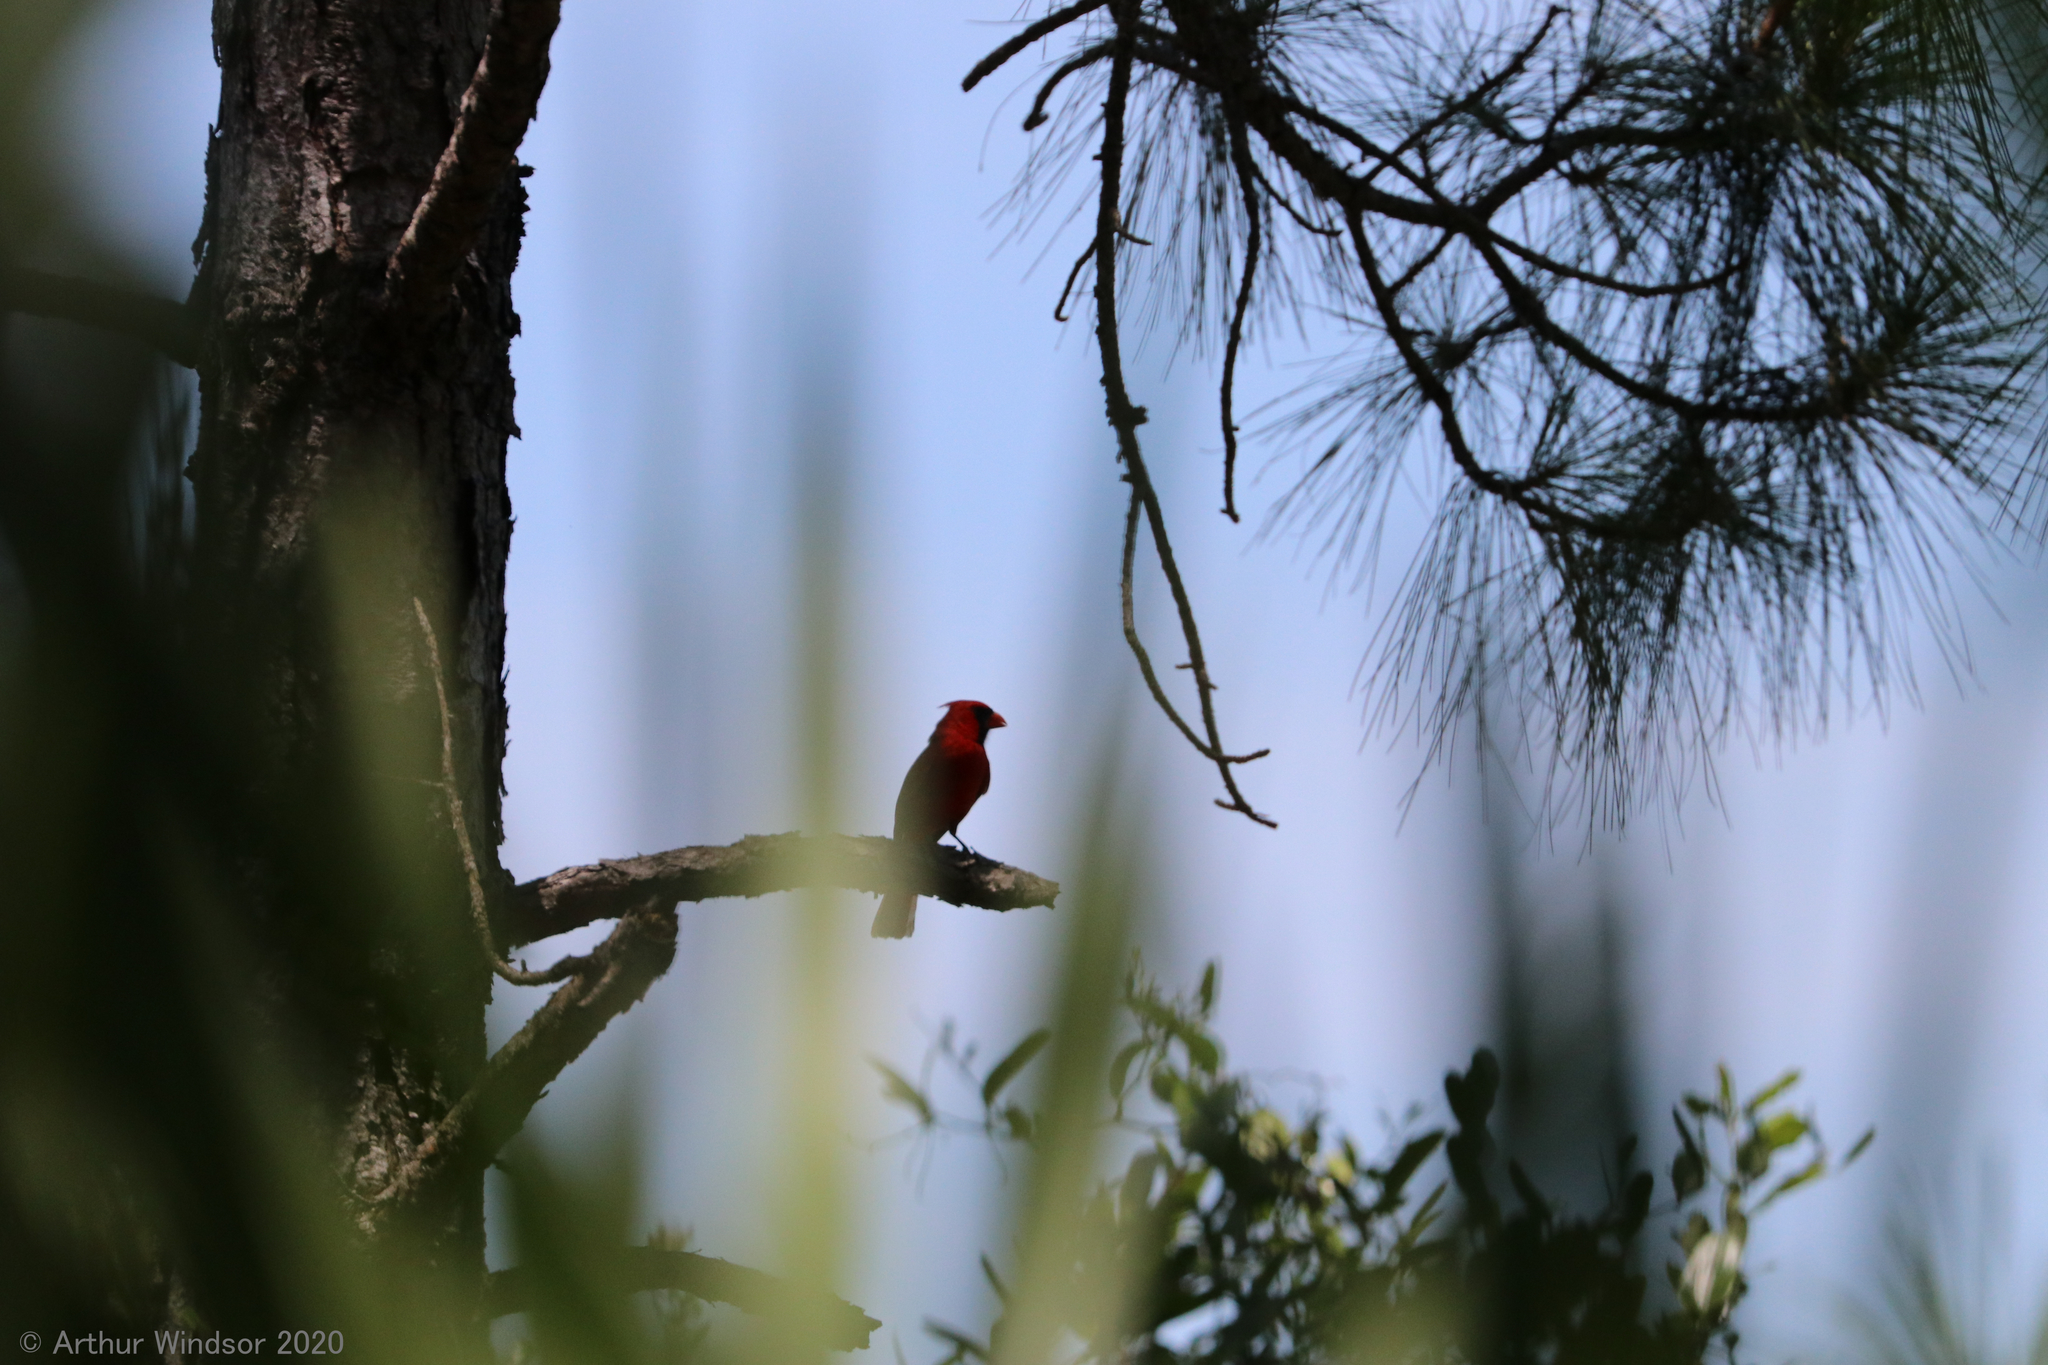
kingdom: Animalia
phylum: Chordata
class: Aves
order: Passeriformes
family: Cardinalidae
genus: Cardinalis
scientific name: Cardinalis cardinalis
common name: Northern cardinal
